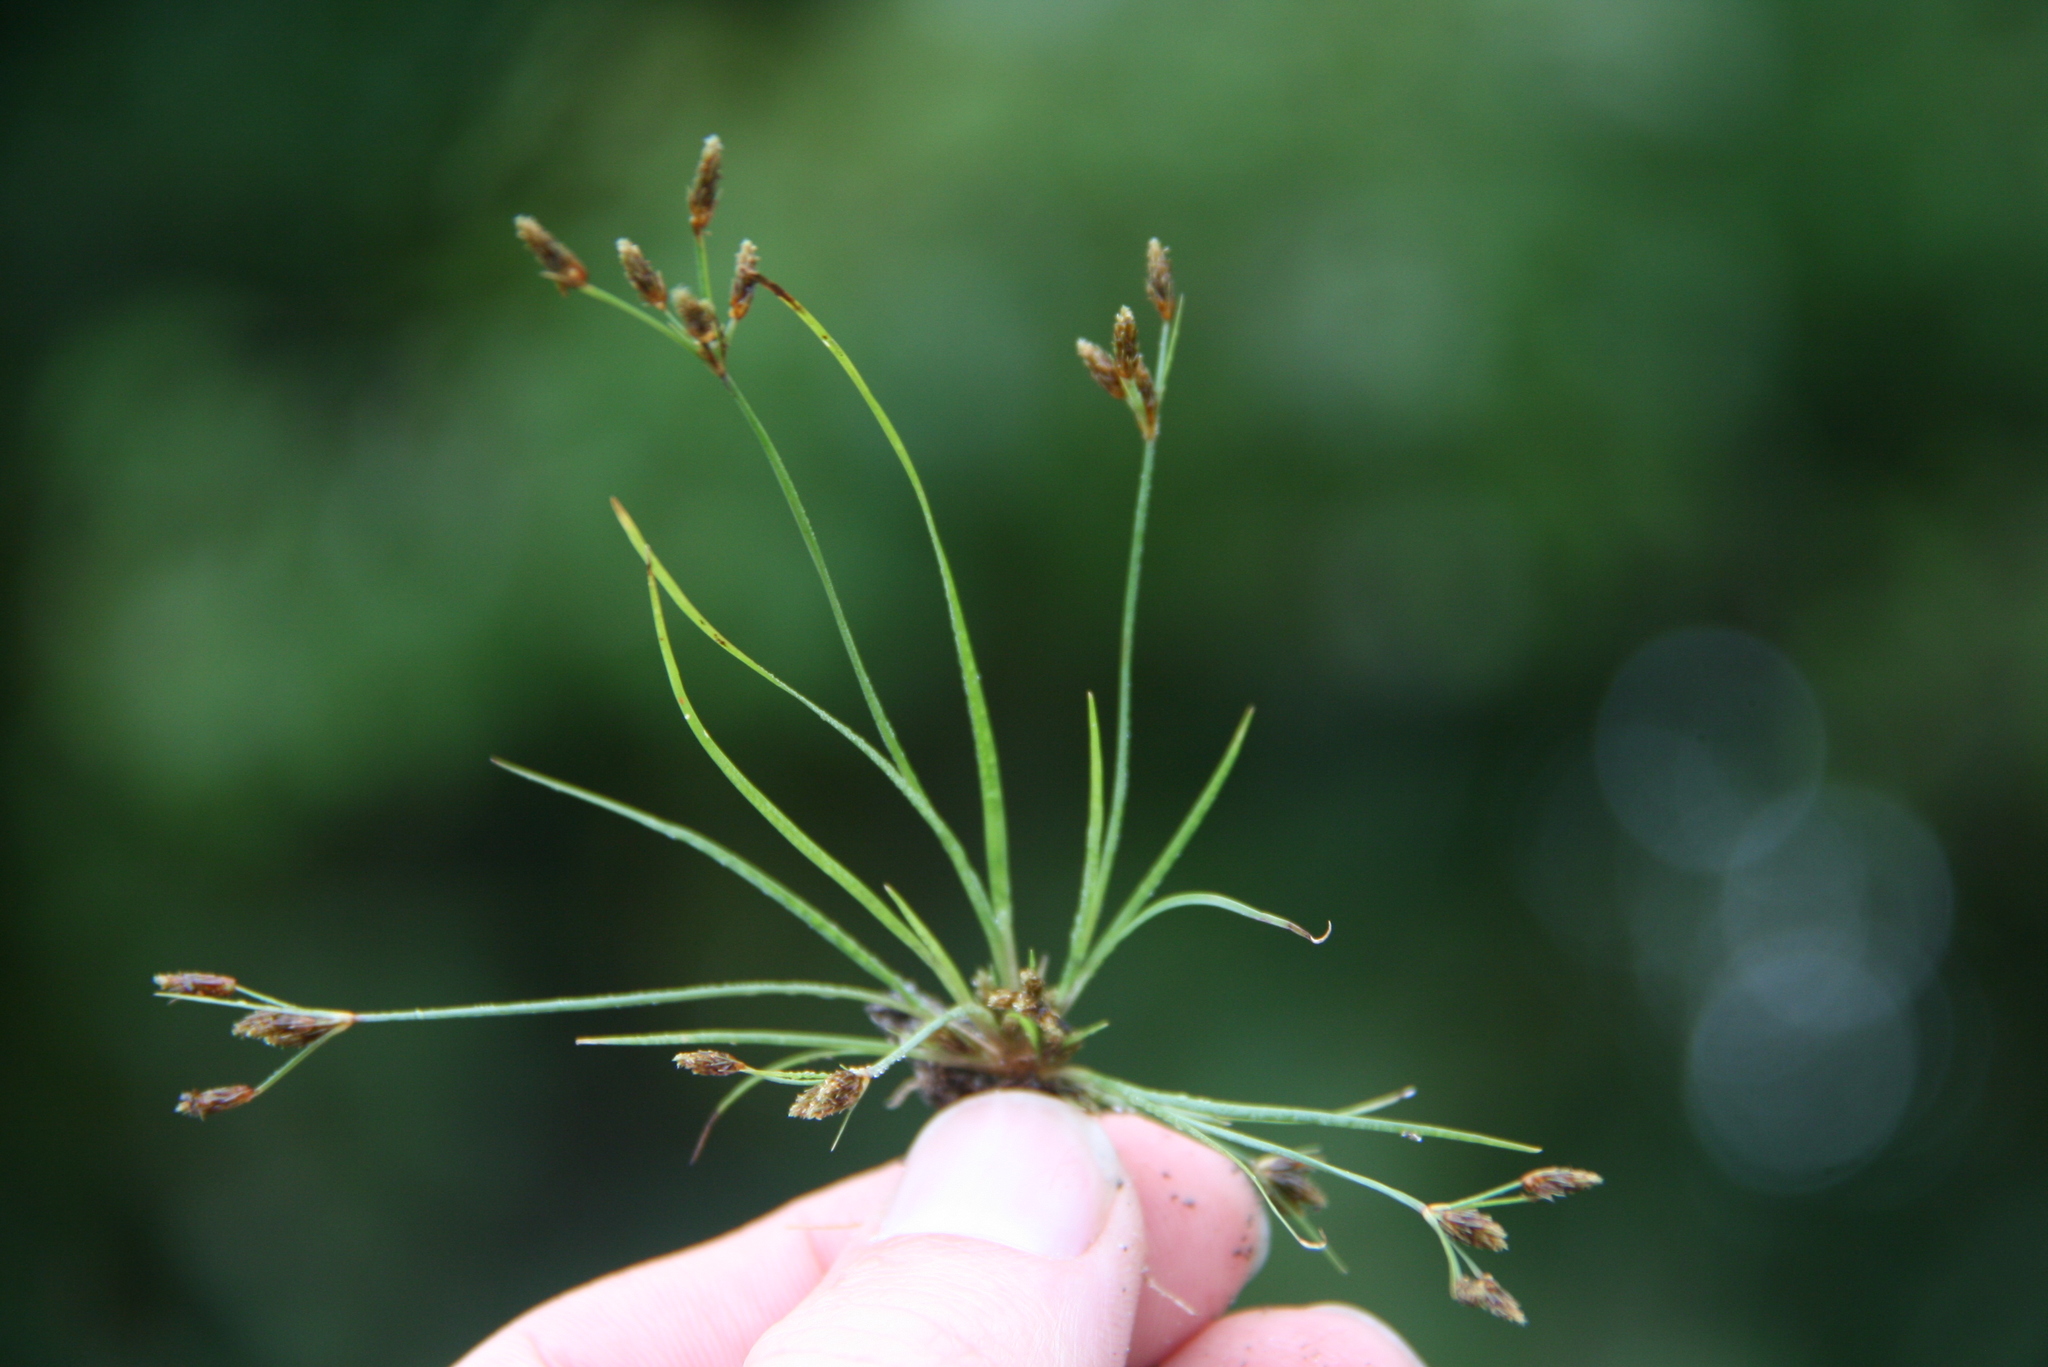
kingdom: Plantae
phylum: Tracheophyta
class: Liliopsida
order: Poales
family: Cyperaceae
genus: Fimbristylis
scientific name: Fimbristylis autumnalis
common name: Slender fimbristylis
